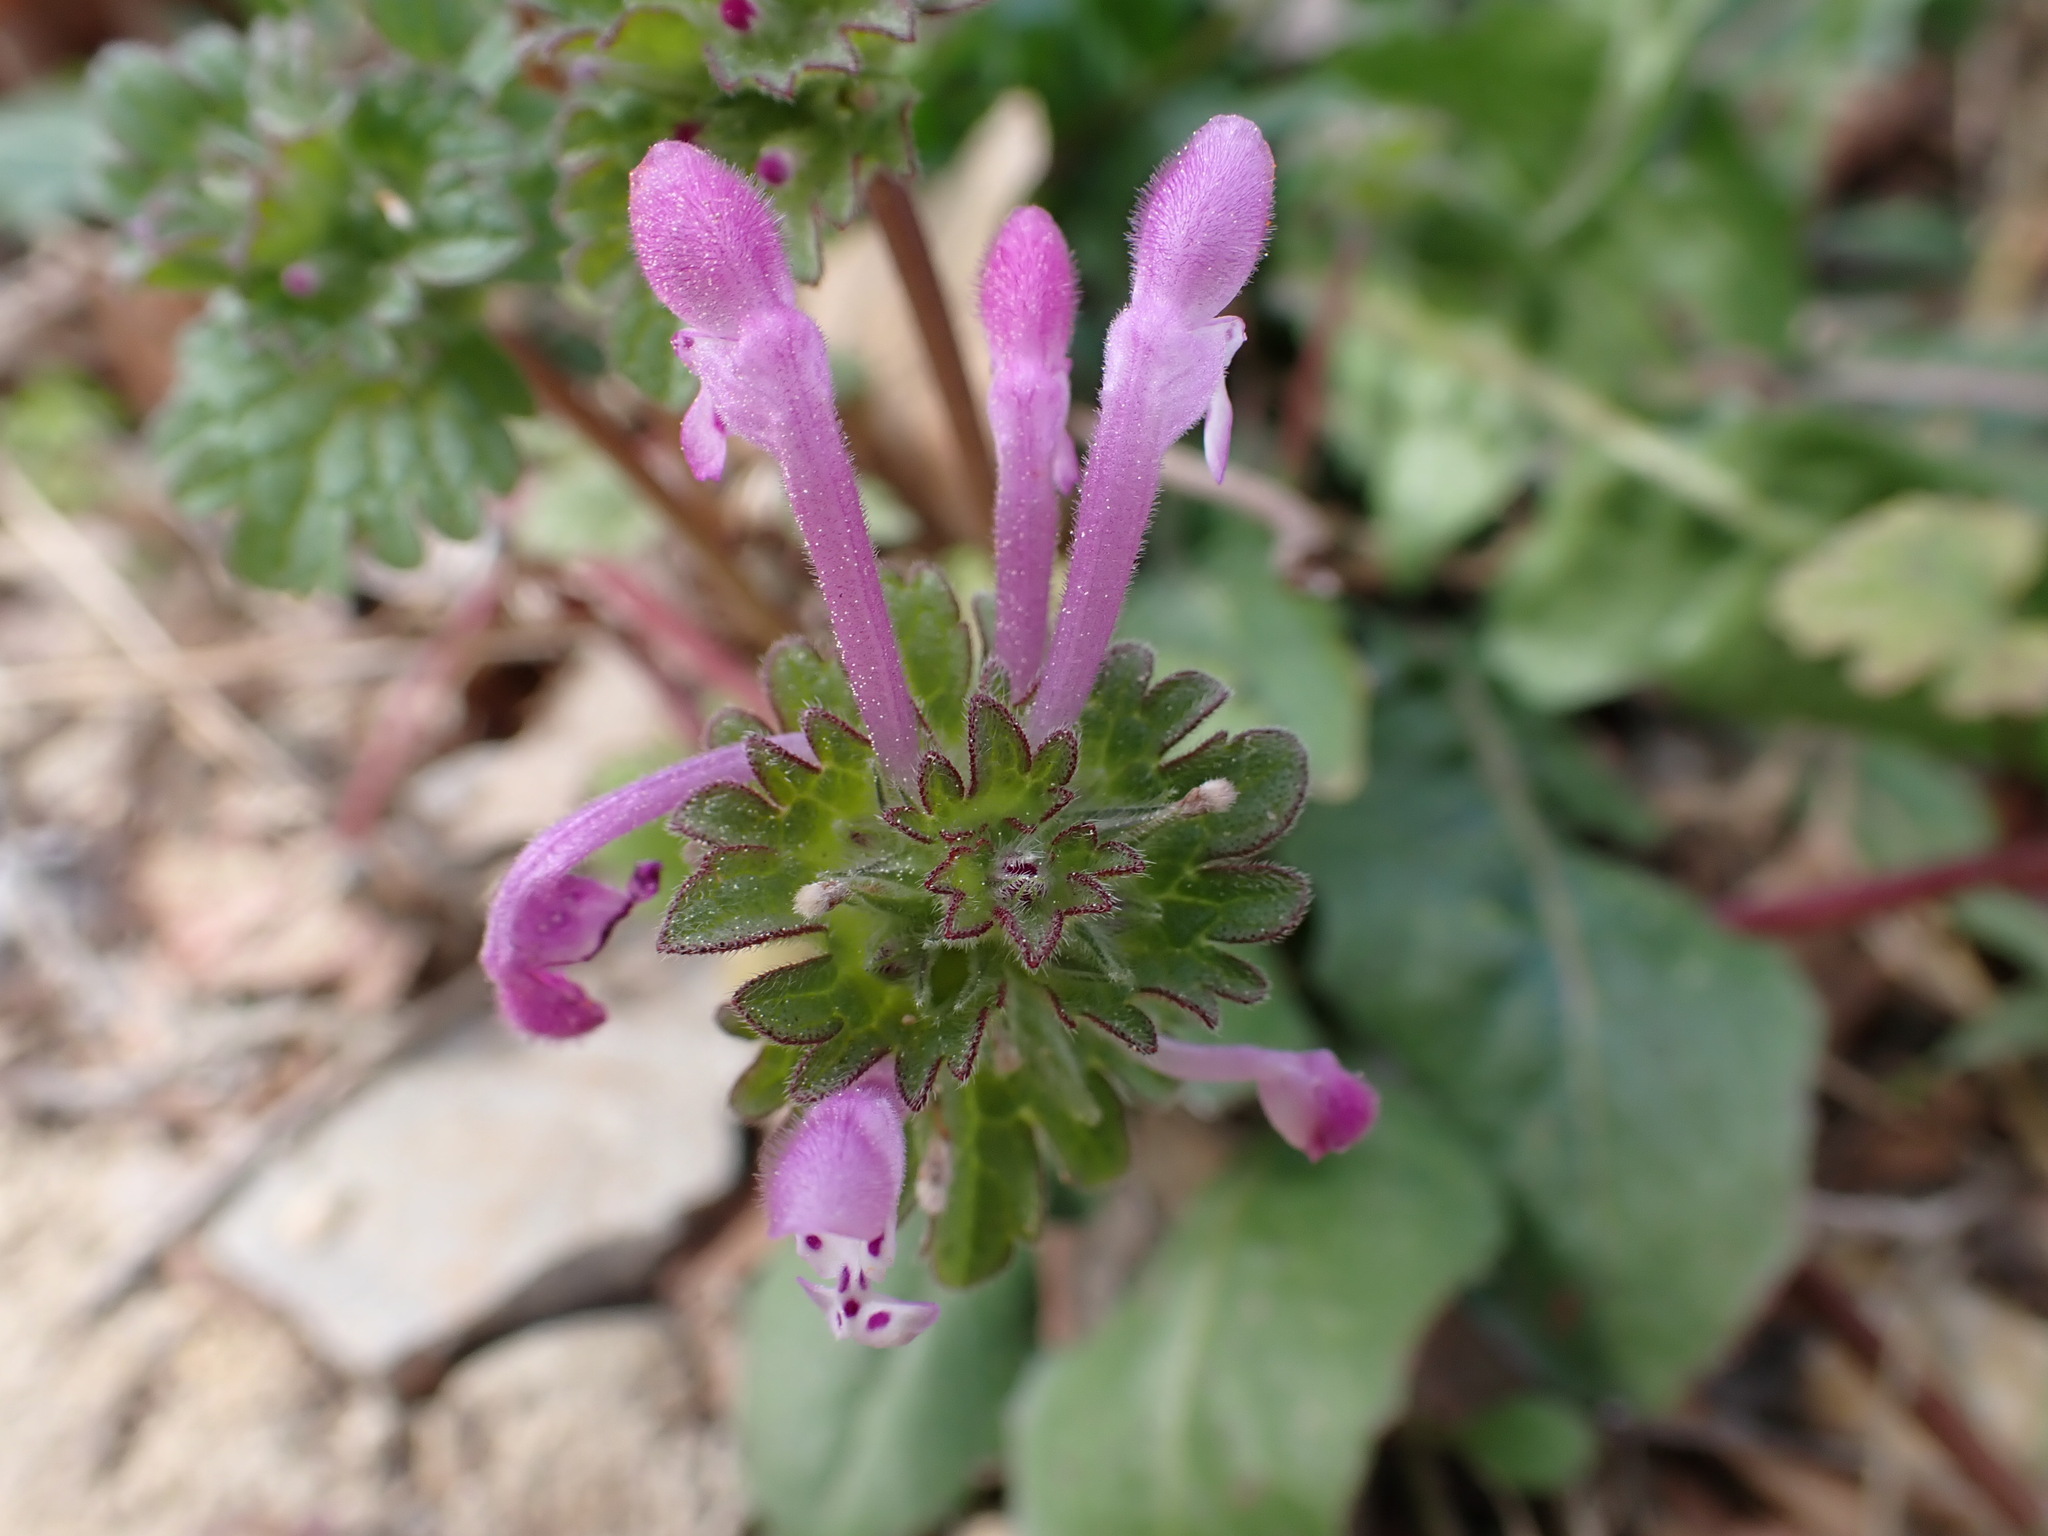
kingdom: Plantae
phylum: Tracheophyta
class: Magnoliopsida
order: Lamiales
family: Lamiaceae
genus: Lamium
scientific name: Lamium amplexicaule
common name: Henbit dead-nettle
